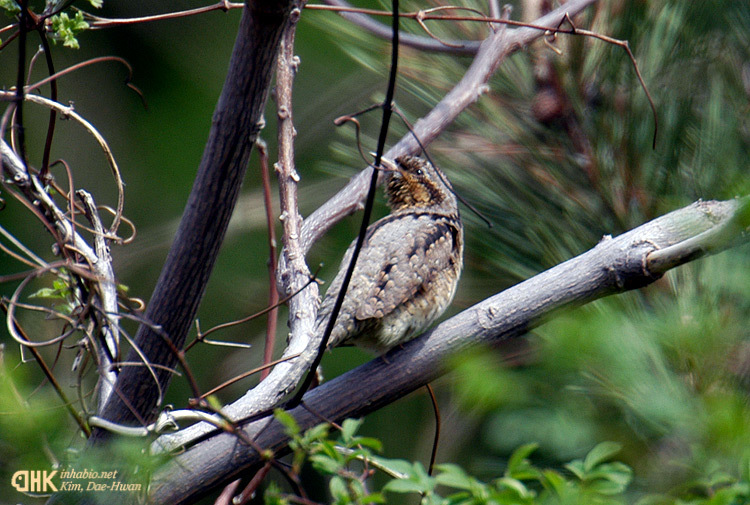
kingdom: Animalia
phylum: Chordata
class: Aves
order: Piciformes
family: Picidae
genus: Jynx
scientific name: Jynx torquilla
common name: Eurasian wryneck
